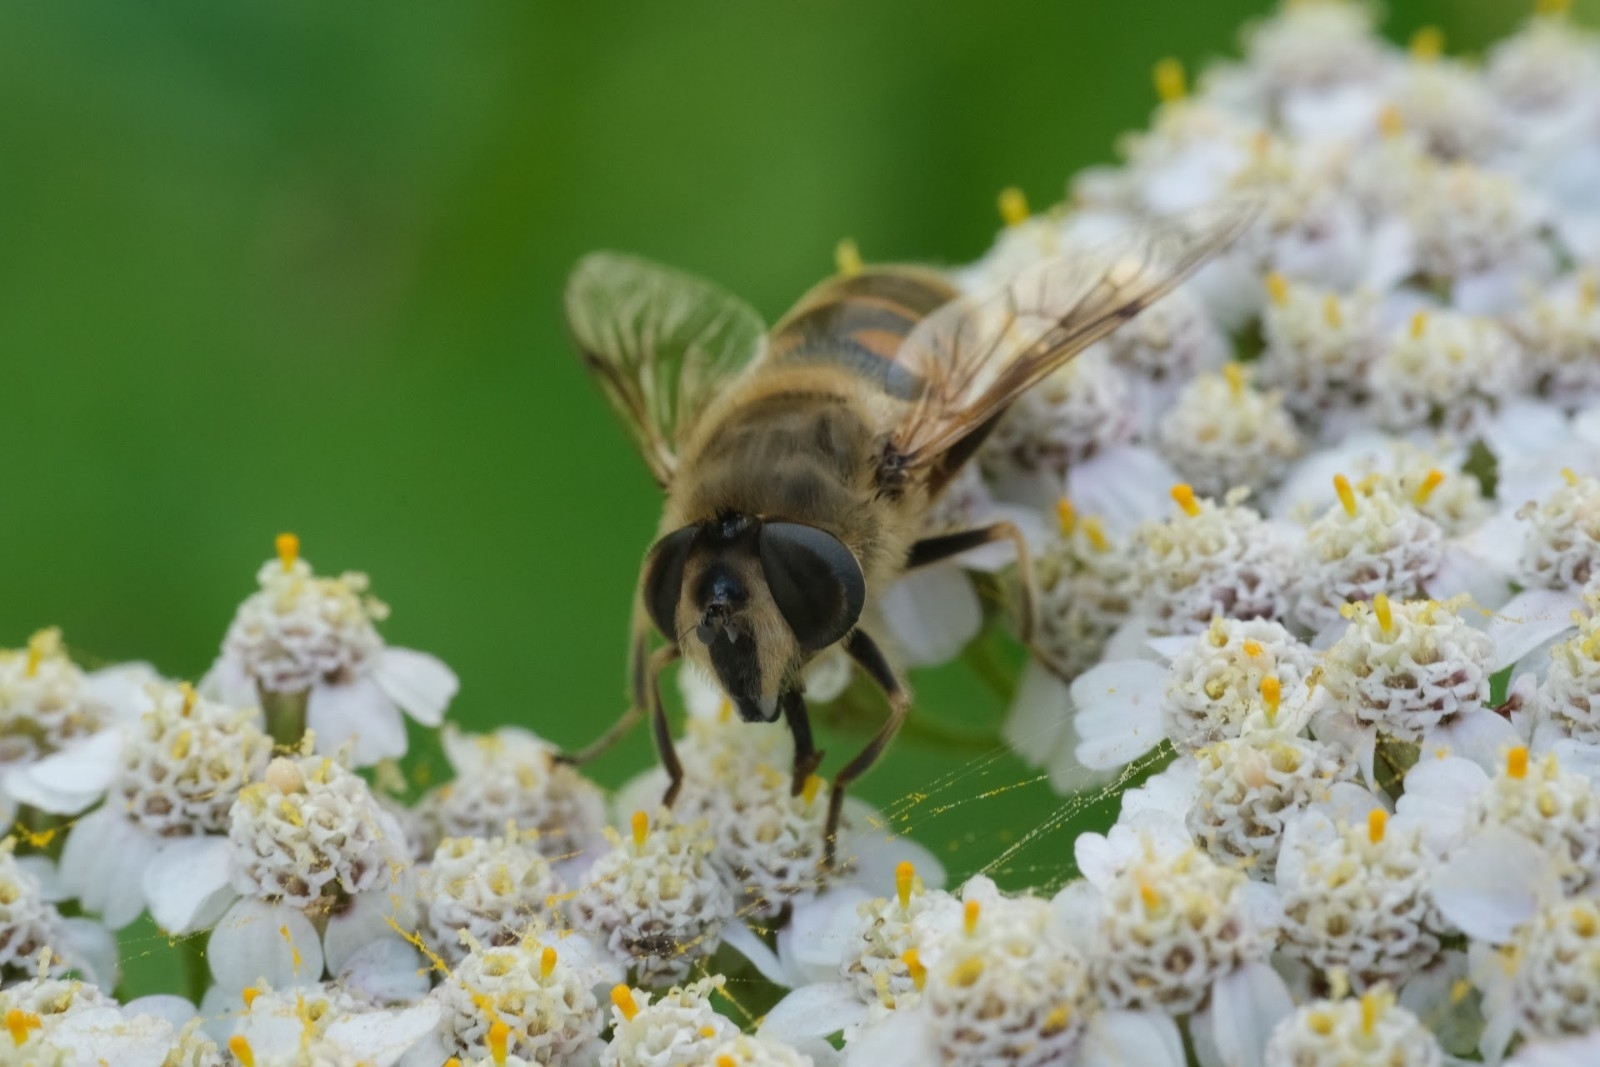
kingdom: Animalia
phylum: Arthropoda
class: Insecta
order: Diptera
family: Syrphidae
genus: Eristalis
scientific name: Eristalis tenax
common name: Drone fly
